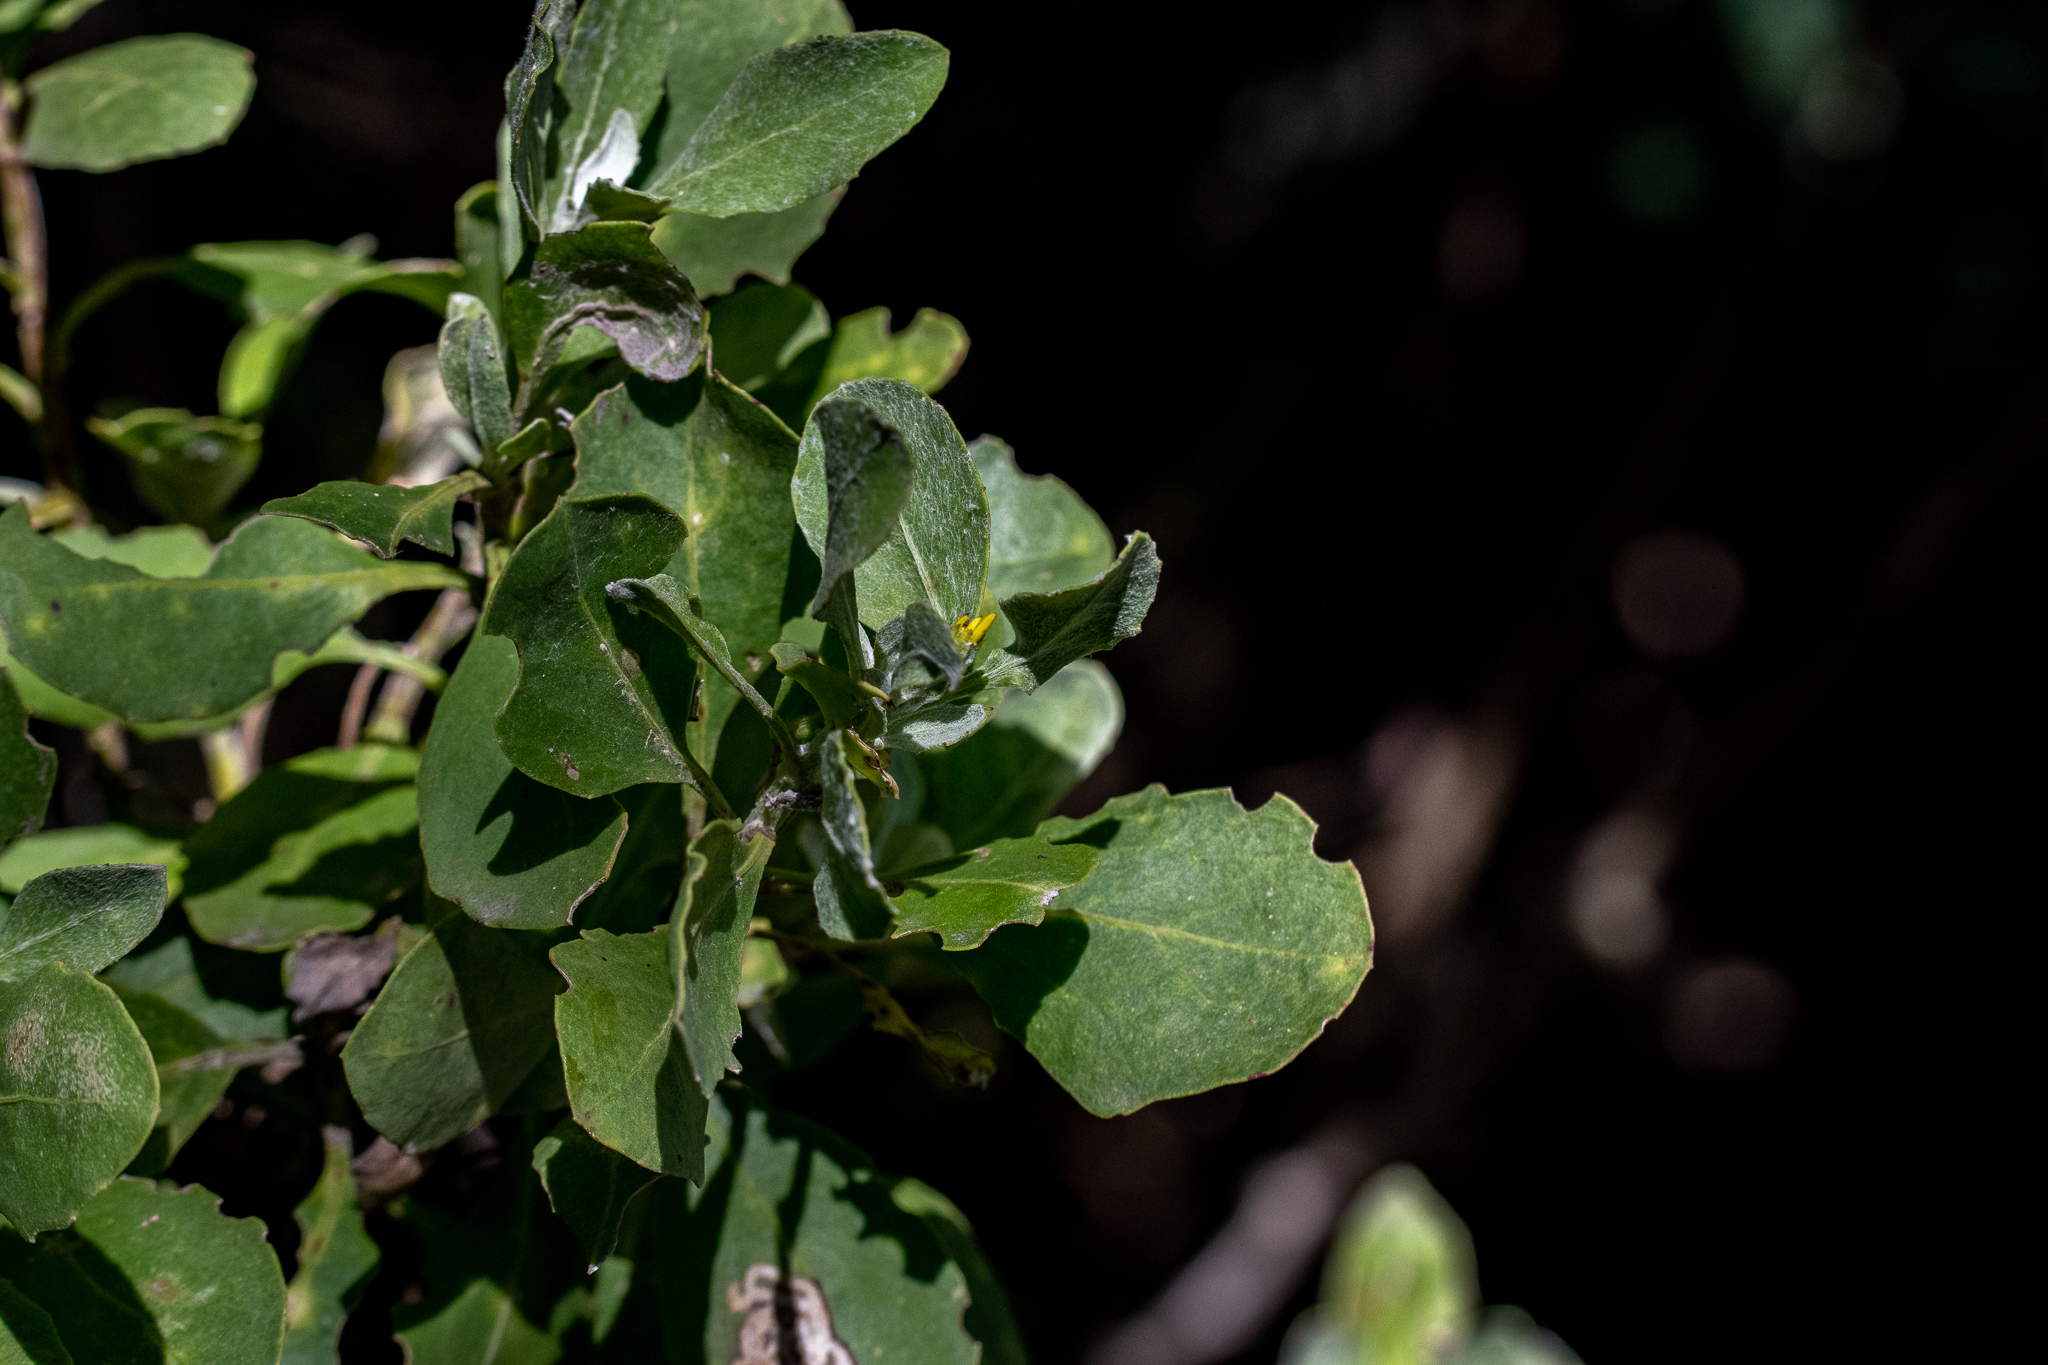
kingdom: Plantae
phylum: Tracheophyta
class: Magnoliopsida
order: Asterales
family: Asteraceae
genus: Osteospermum
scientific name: Osteospermum moniliferum
